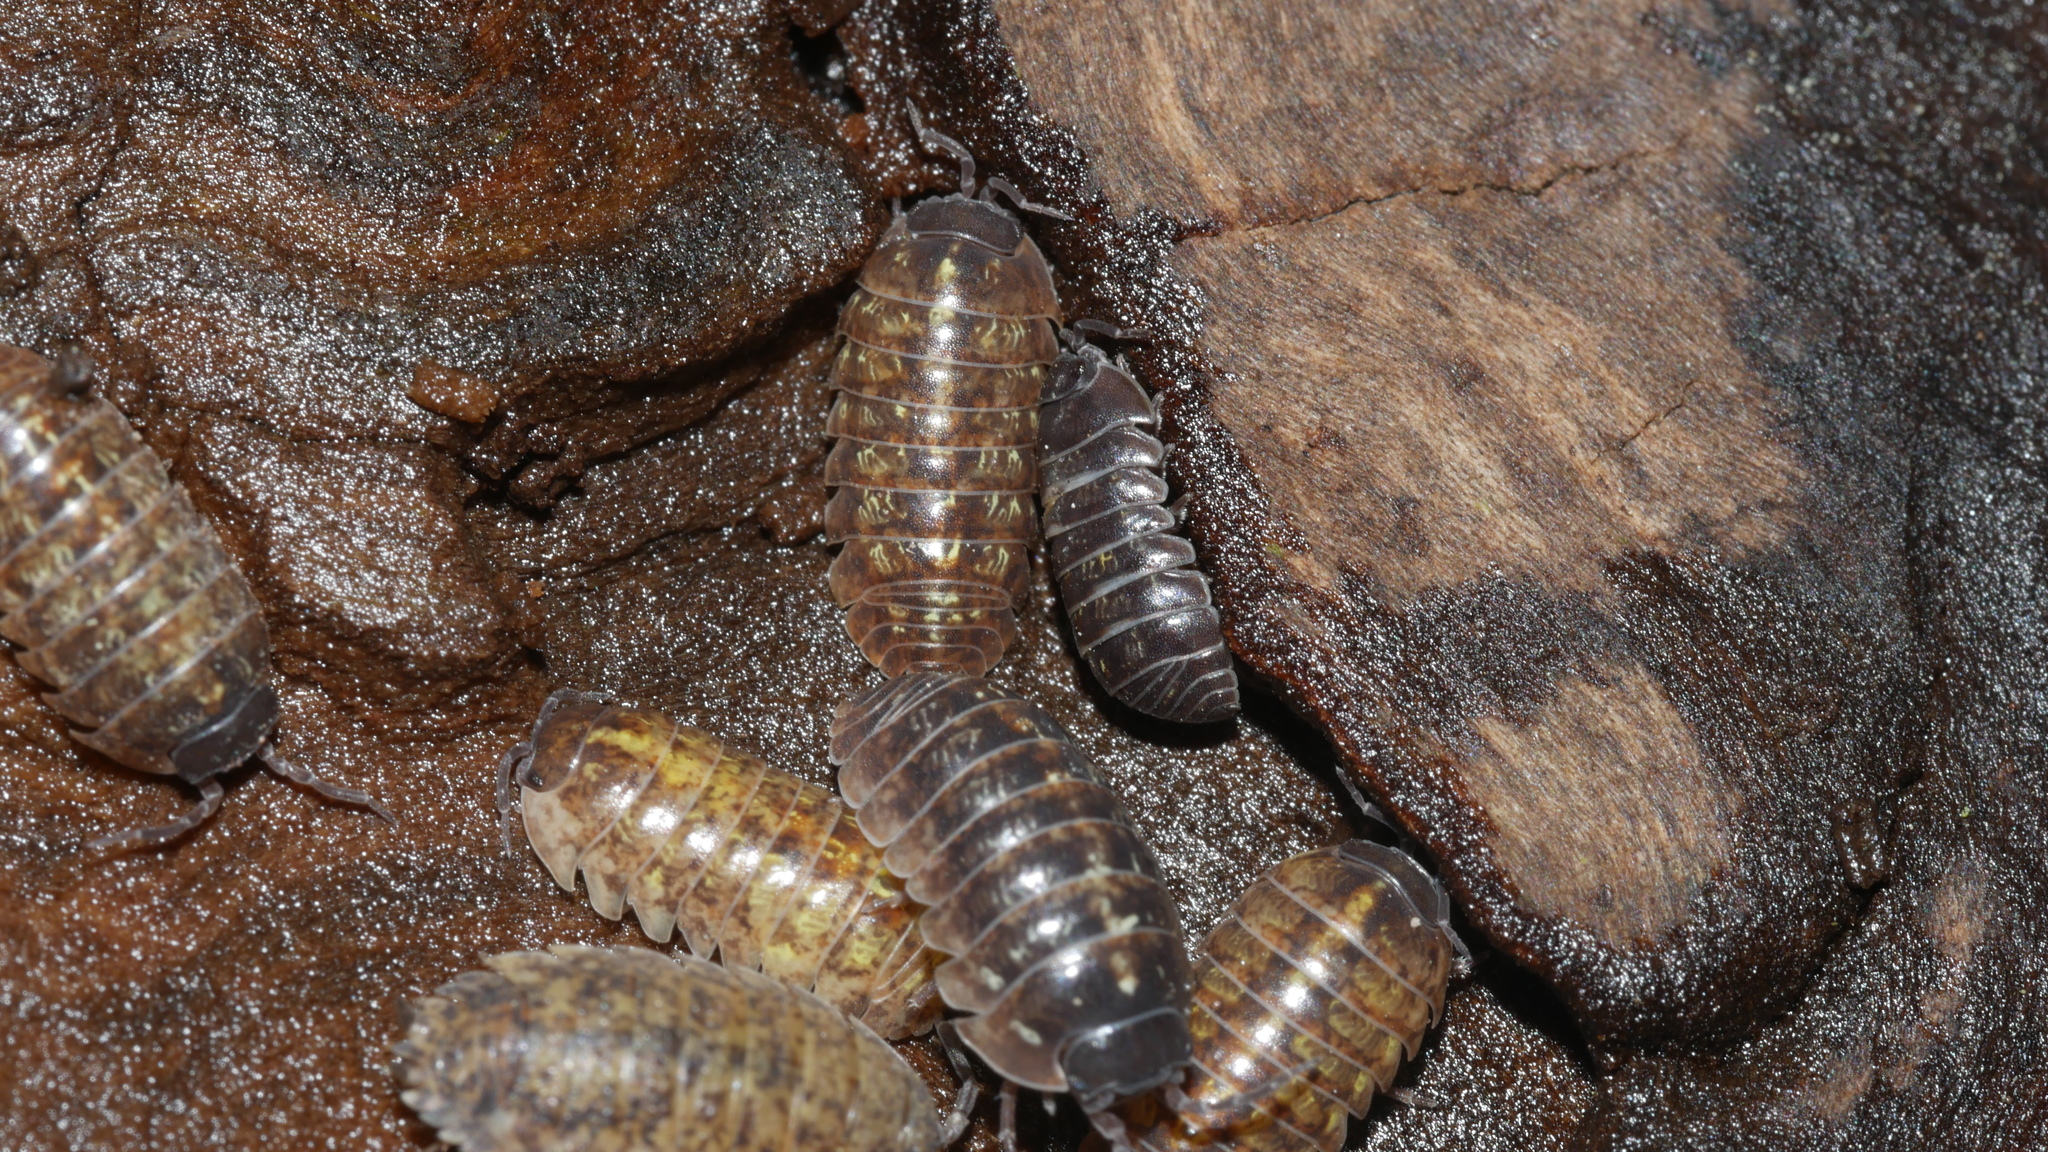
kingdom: Animalia
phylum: Arthropoda
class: Malacostraca
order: Isopoda
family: Armadillidiidae
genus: Armadillidium
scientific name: Armadillidium vulgare
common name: Common pill woodlouse
